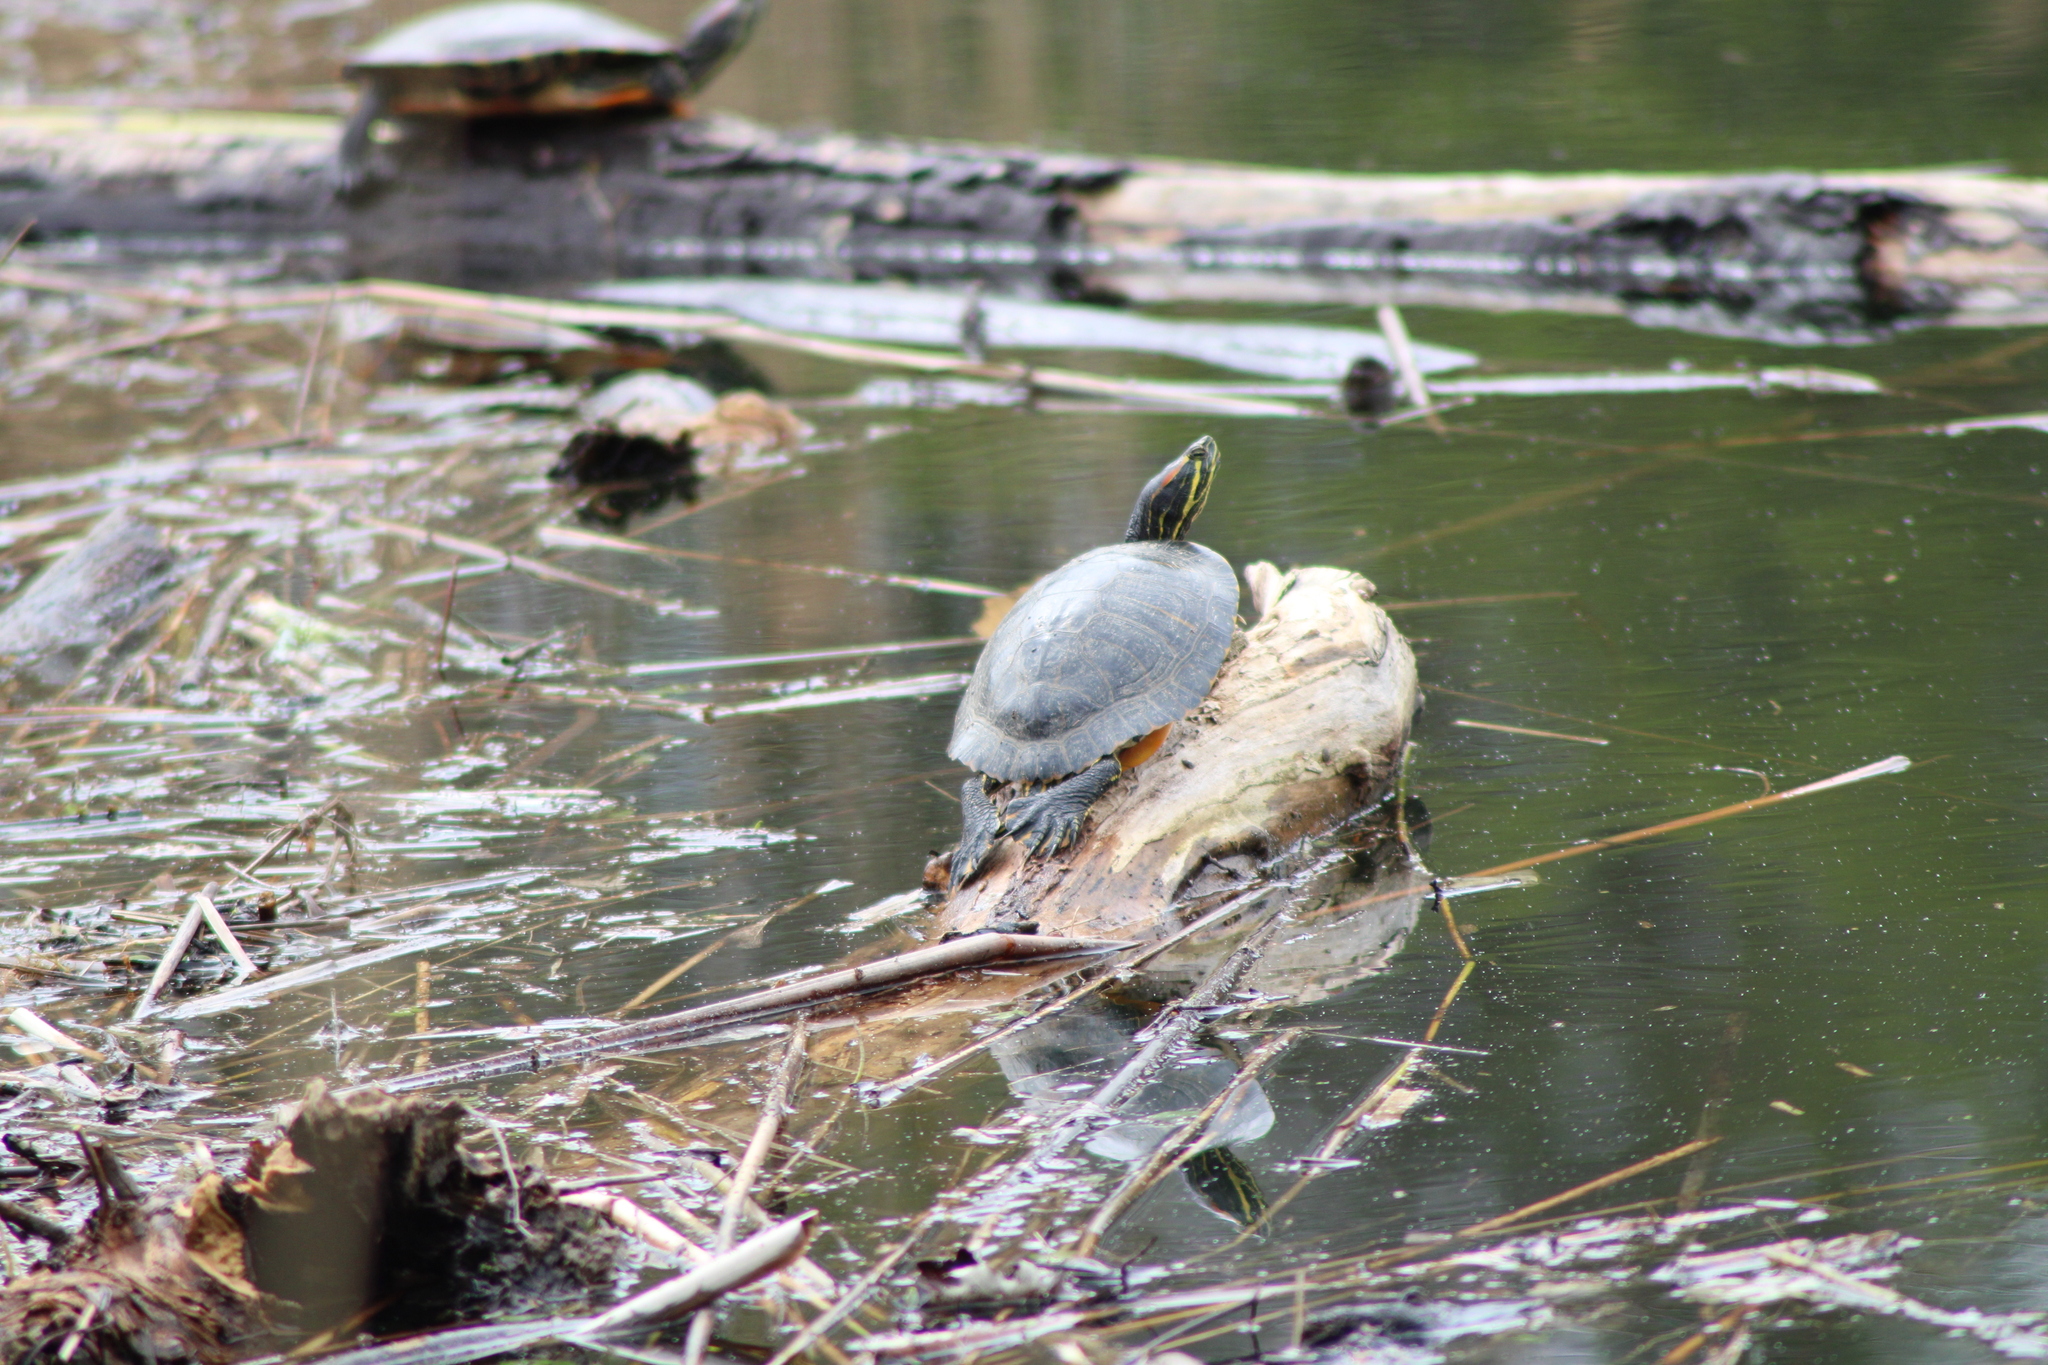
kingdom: Animalia
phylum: Chordata
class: Testudines
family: Emydidae
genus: Trachemys
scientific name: Trachemys scripta
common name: Slider
